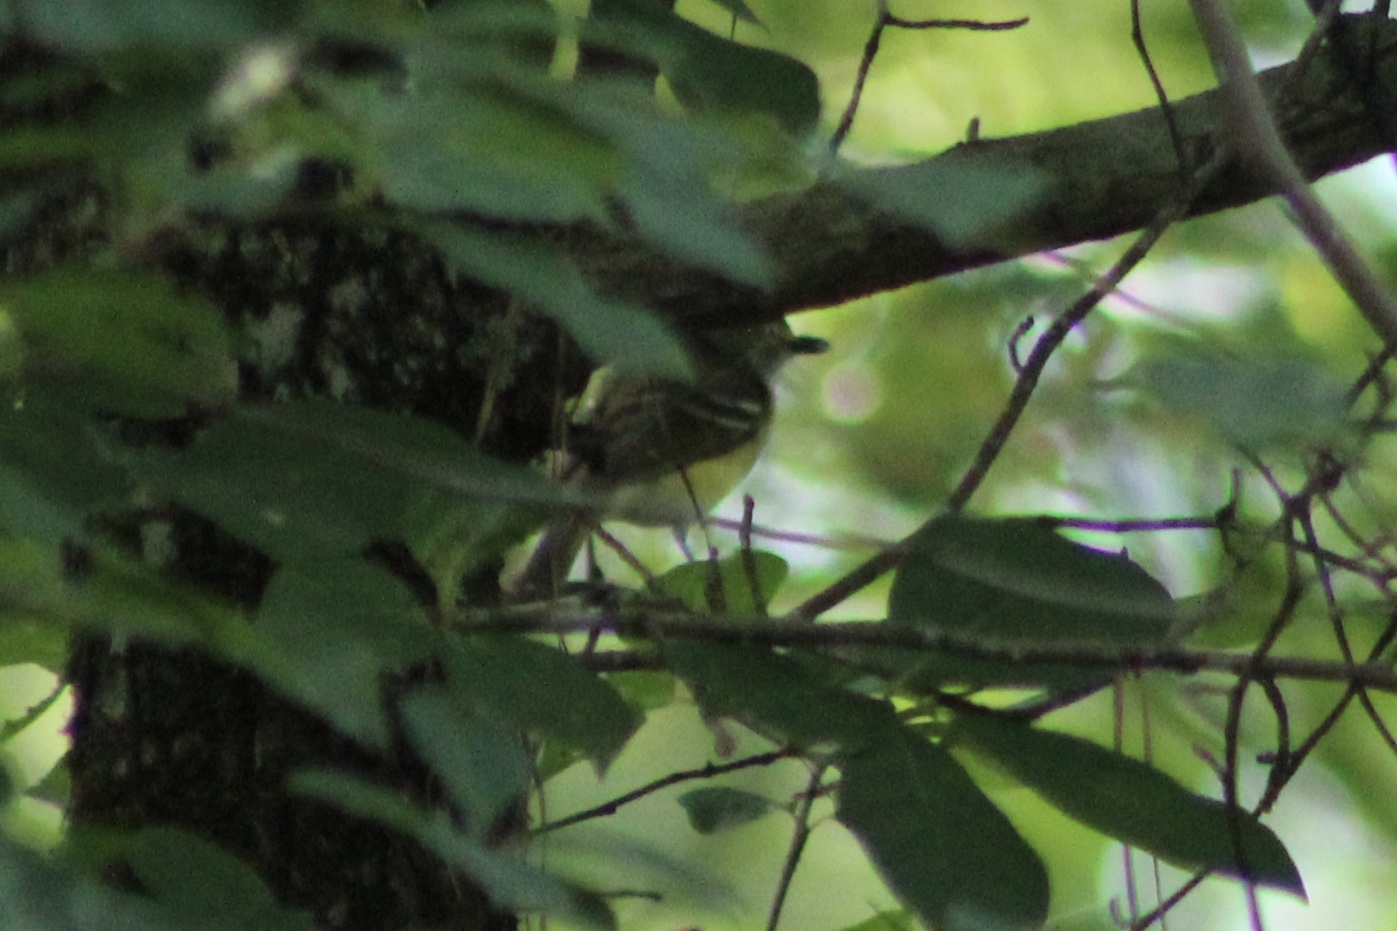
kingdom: Animalia
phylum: Chordata
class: Aves
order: Passeriformes
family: Vireonidae
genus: Vireo
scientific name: Vireo griseus
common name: White-eyed vireo
